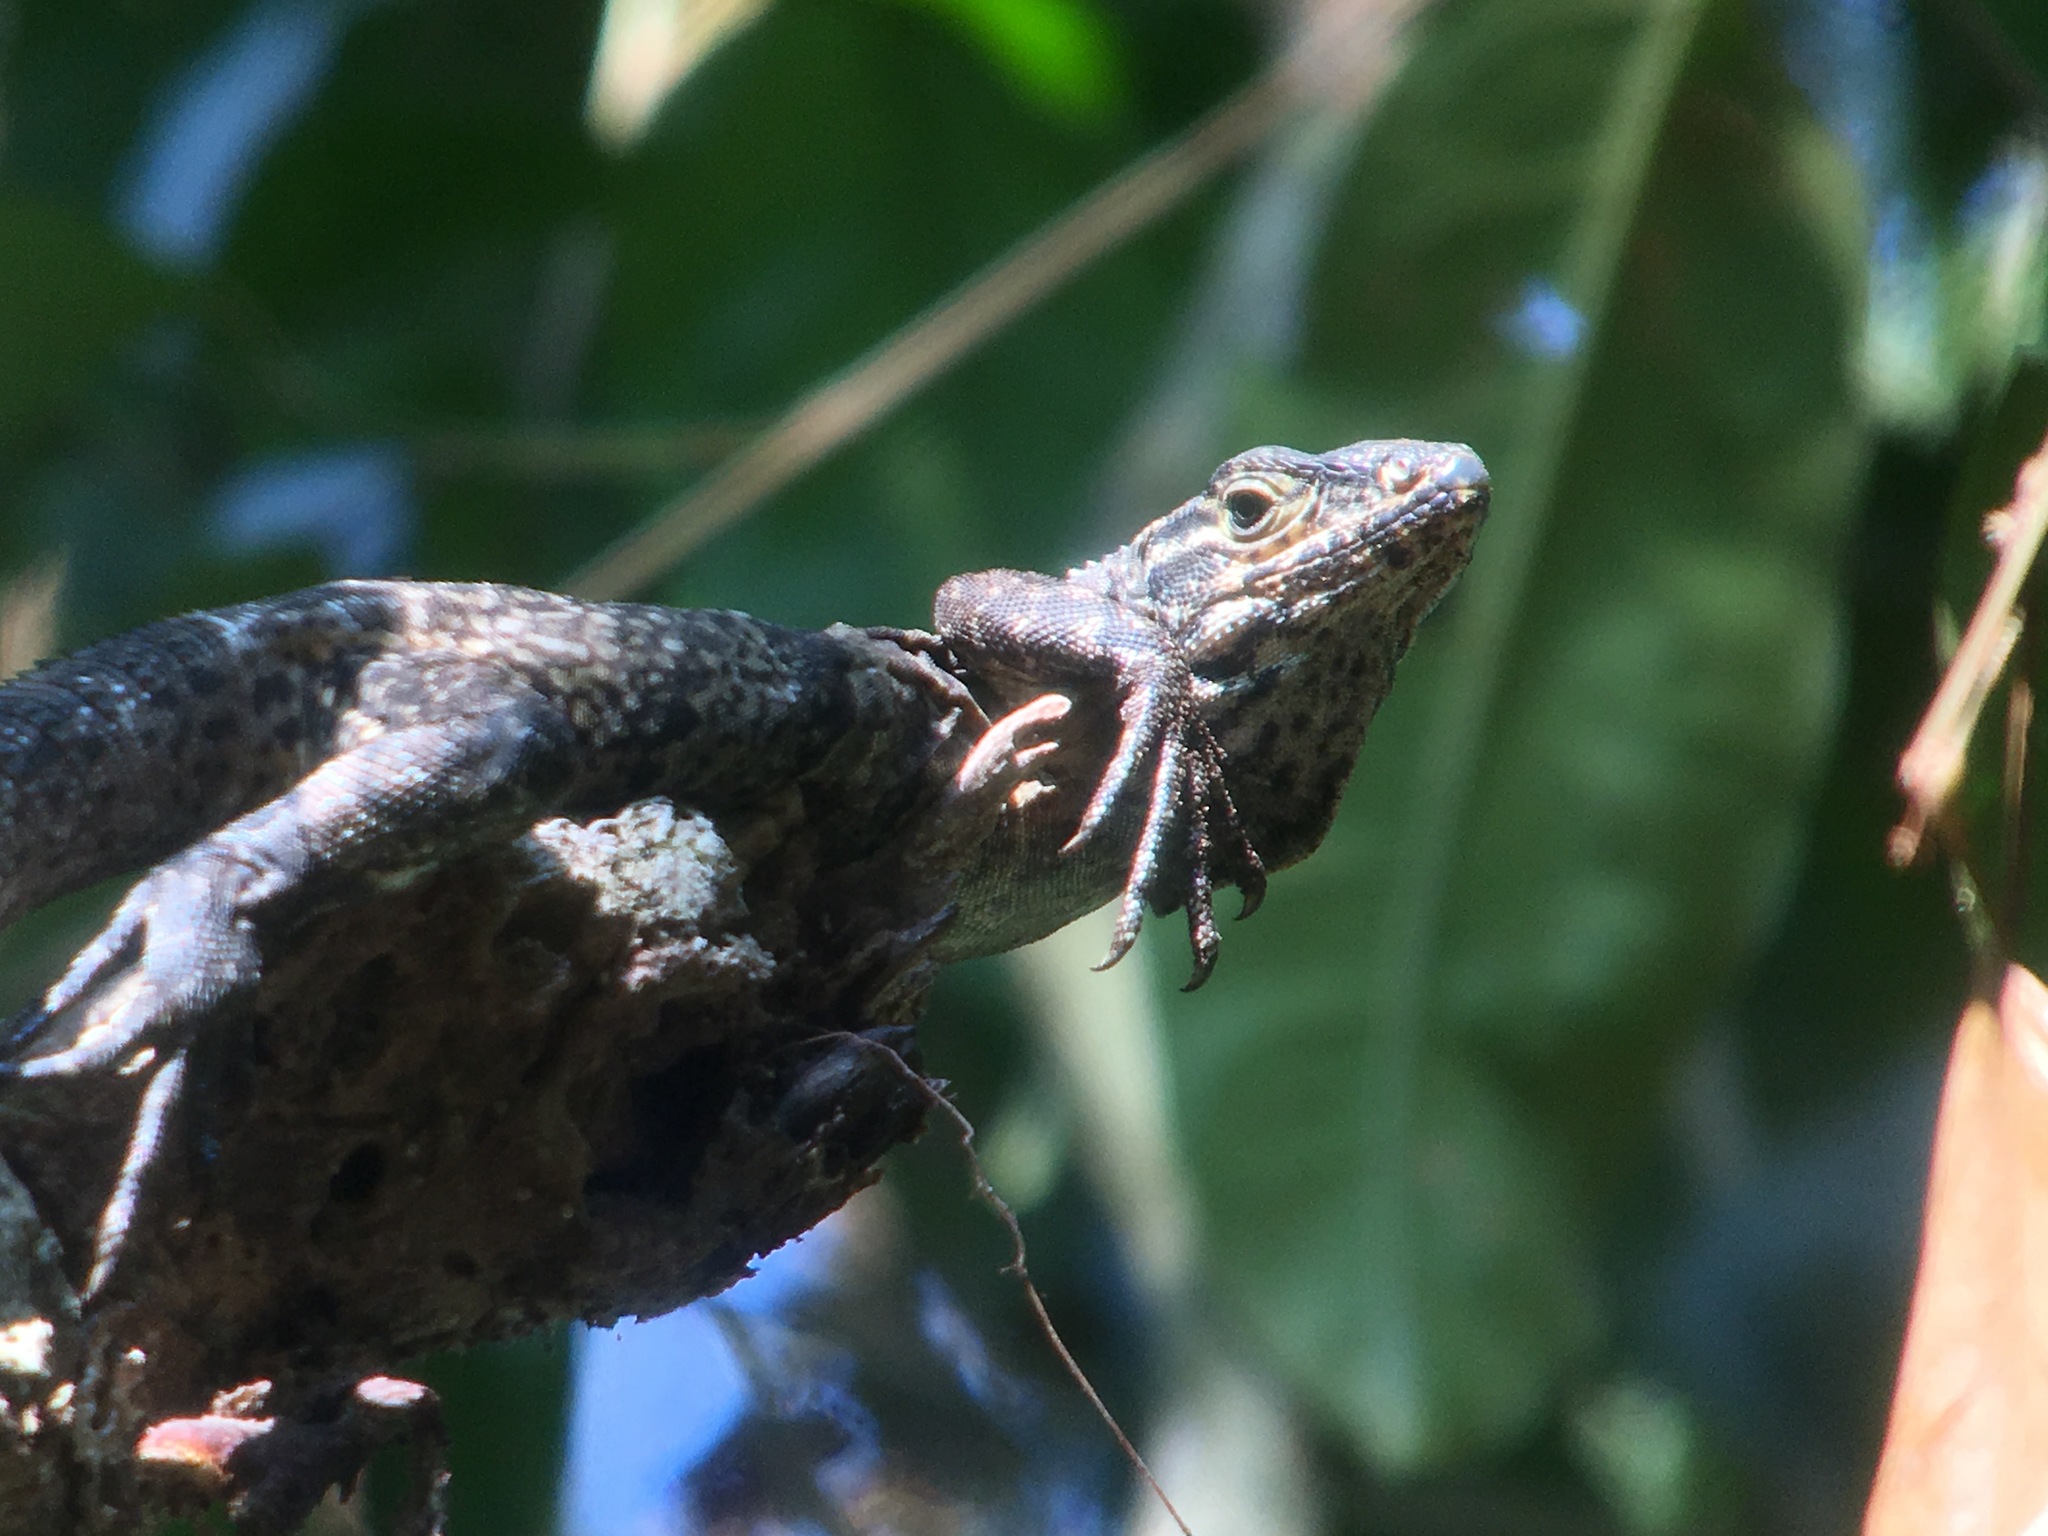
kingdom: Animalia
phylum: Chordata
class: Squamata
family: Iguanidae
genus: Ctenosaura
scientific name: Ctenosaura similis
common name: Black spiny-tailed iguana
